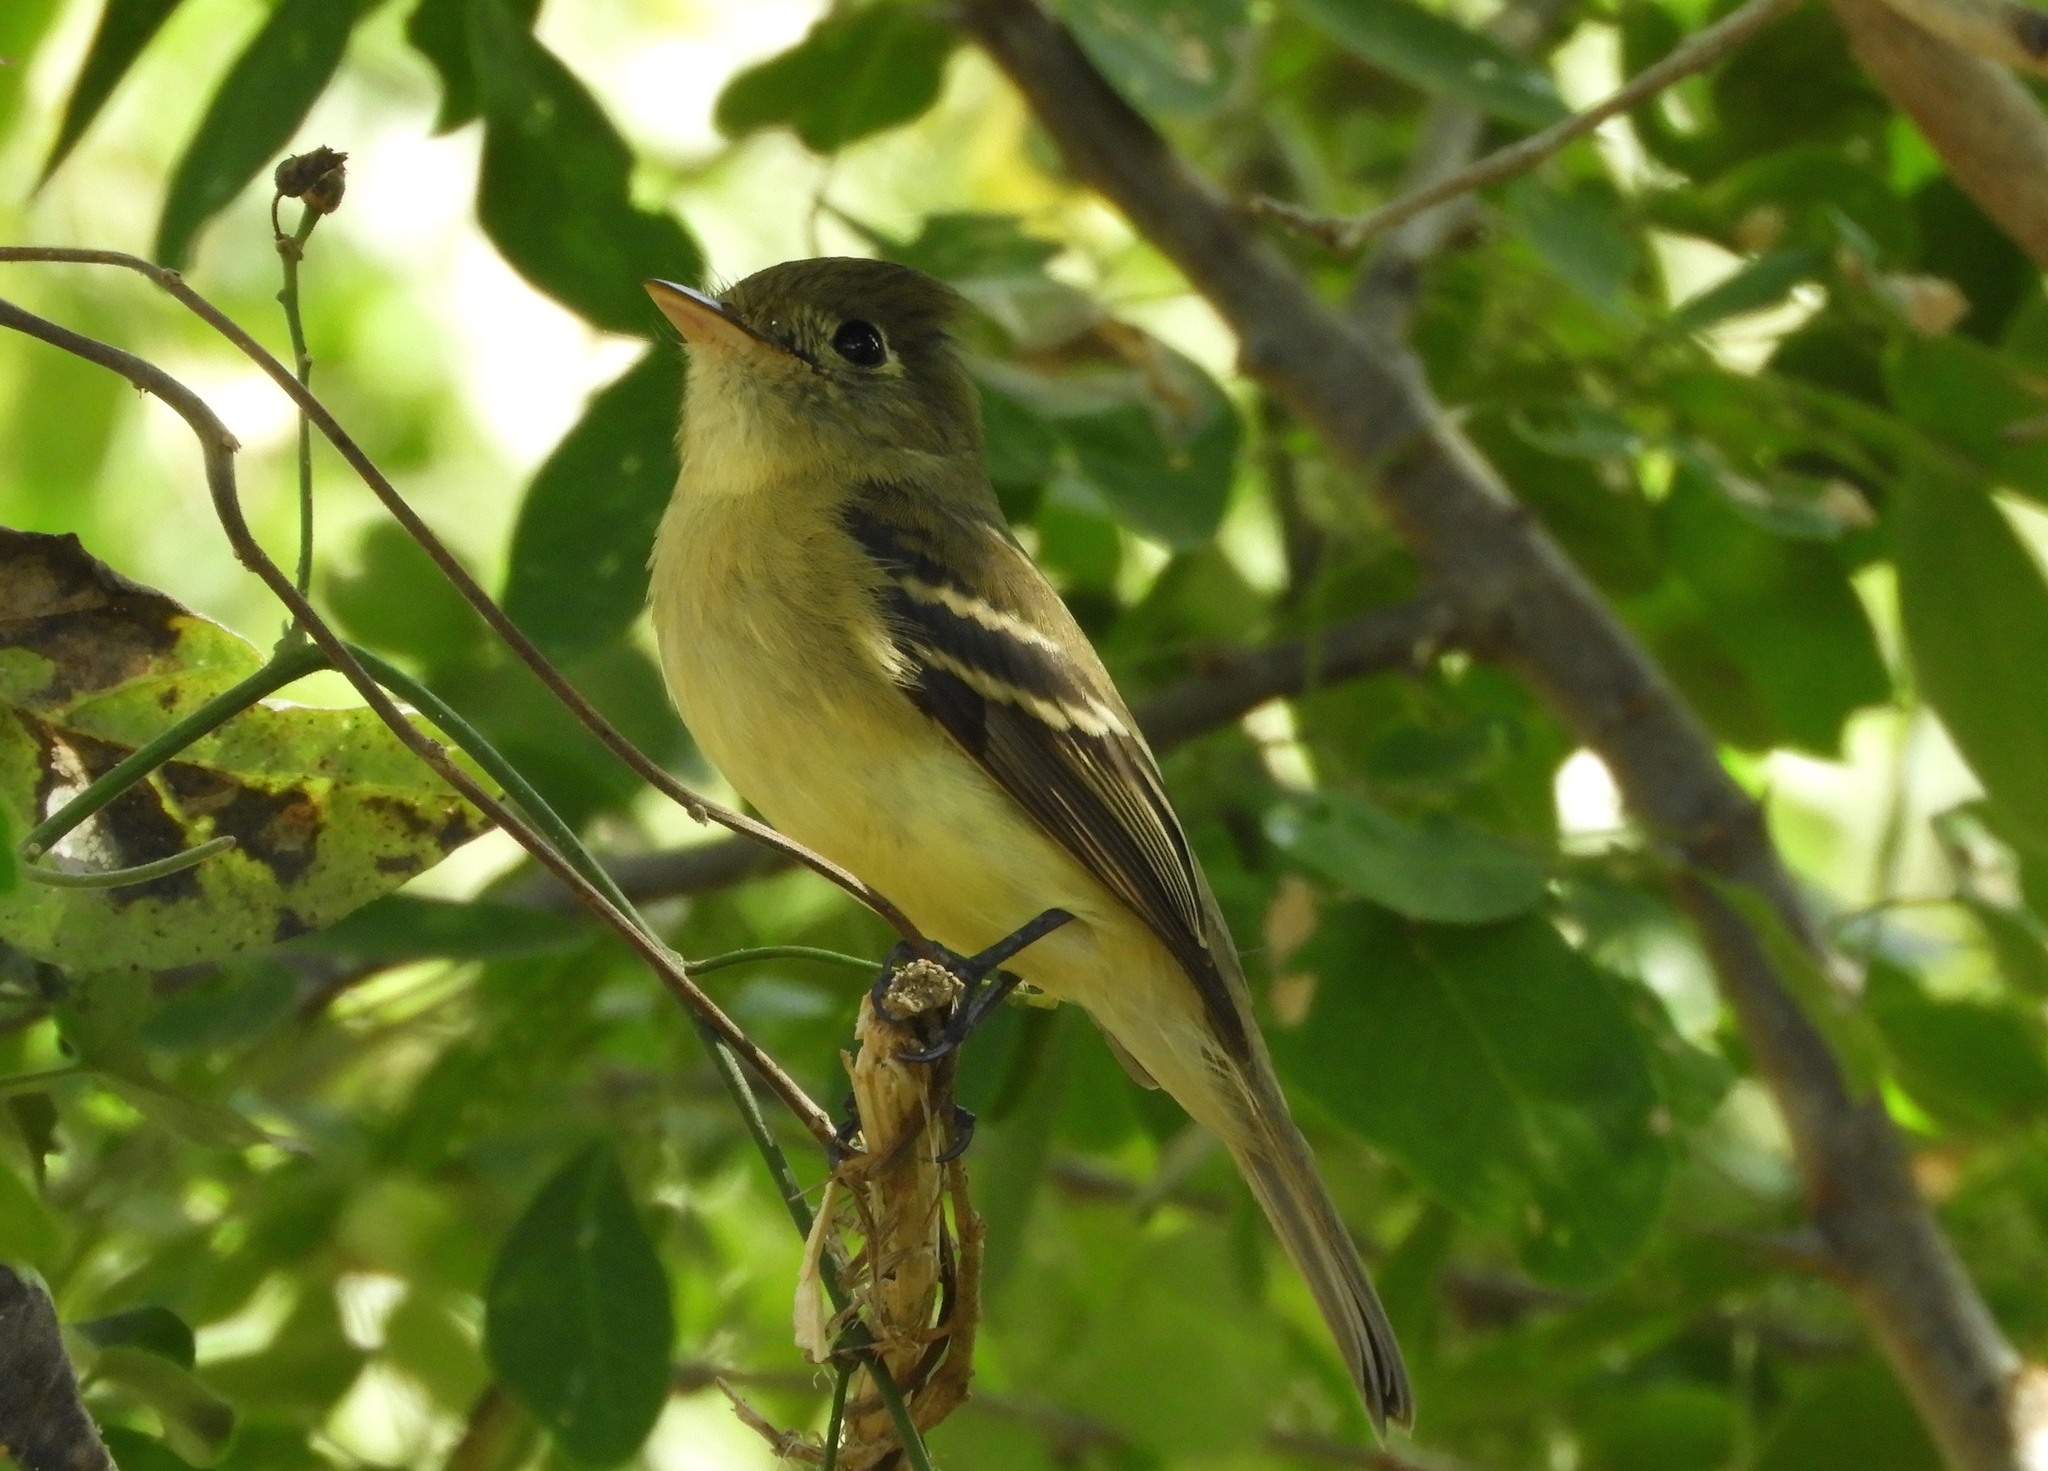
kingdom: Animalia
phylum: Chordata
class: Aves
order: Passeriformes
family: Tyrannidae
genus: Empidonax
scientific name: Empidonax
